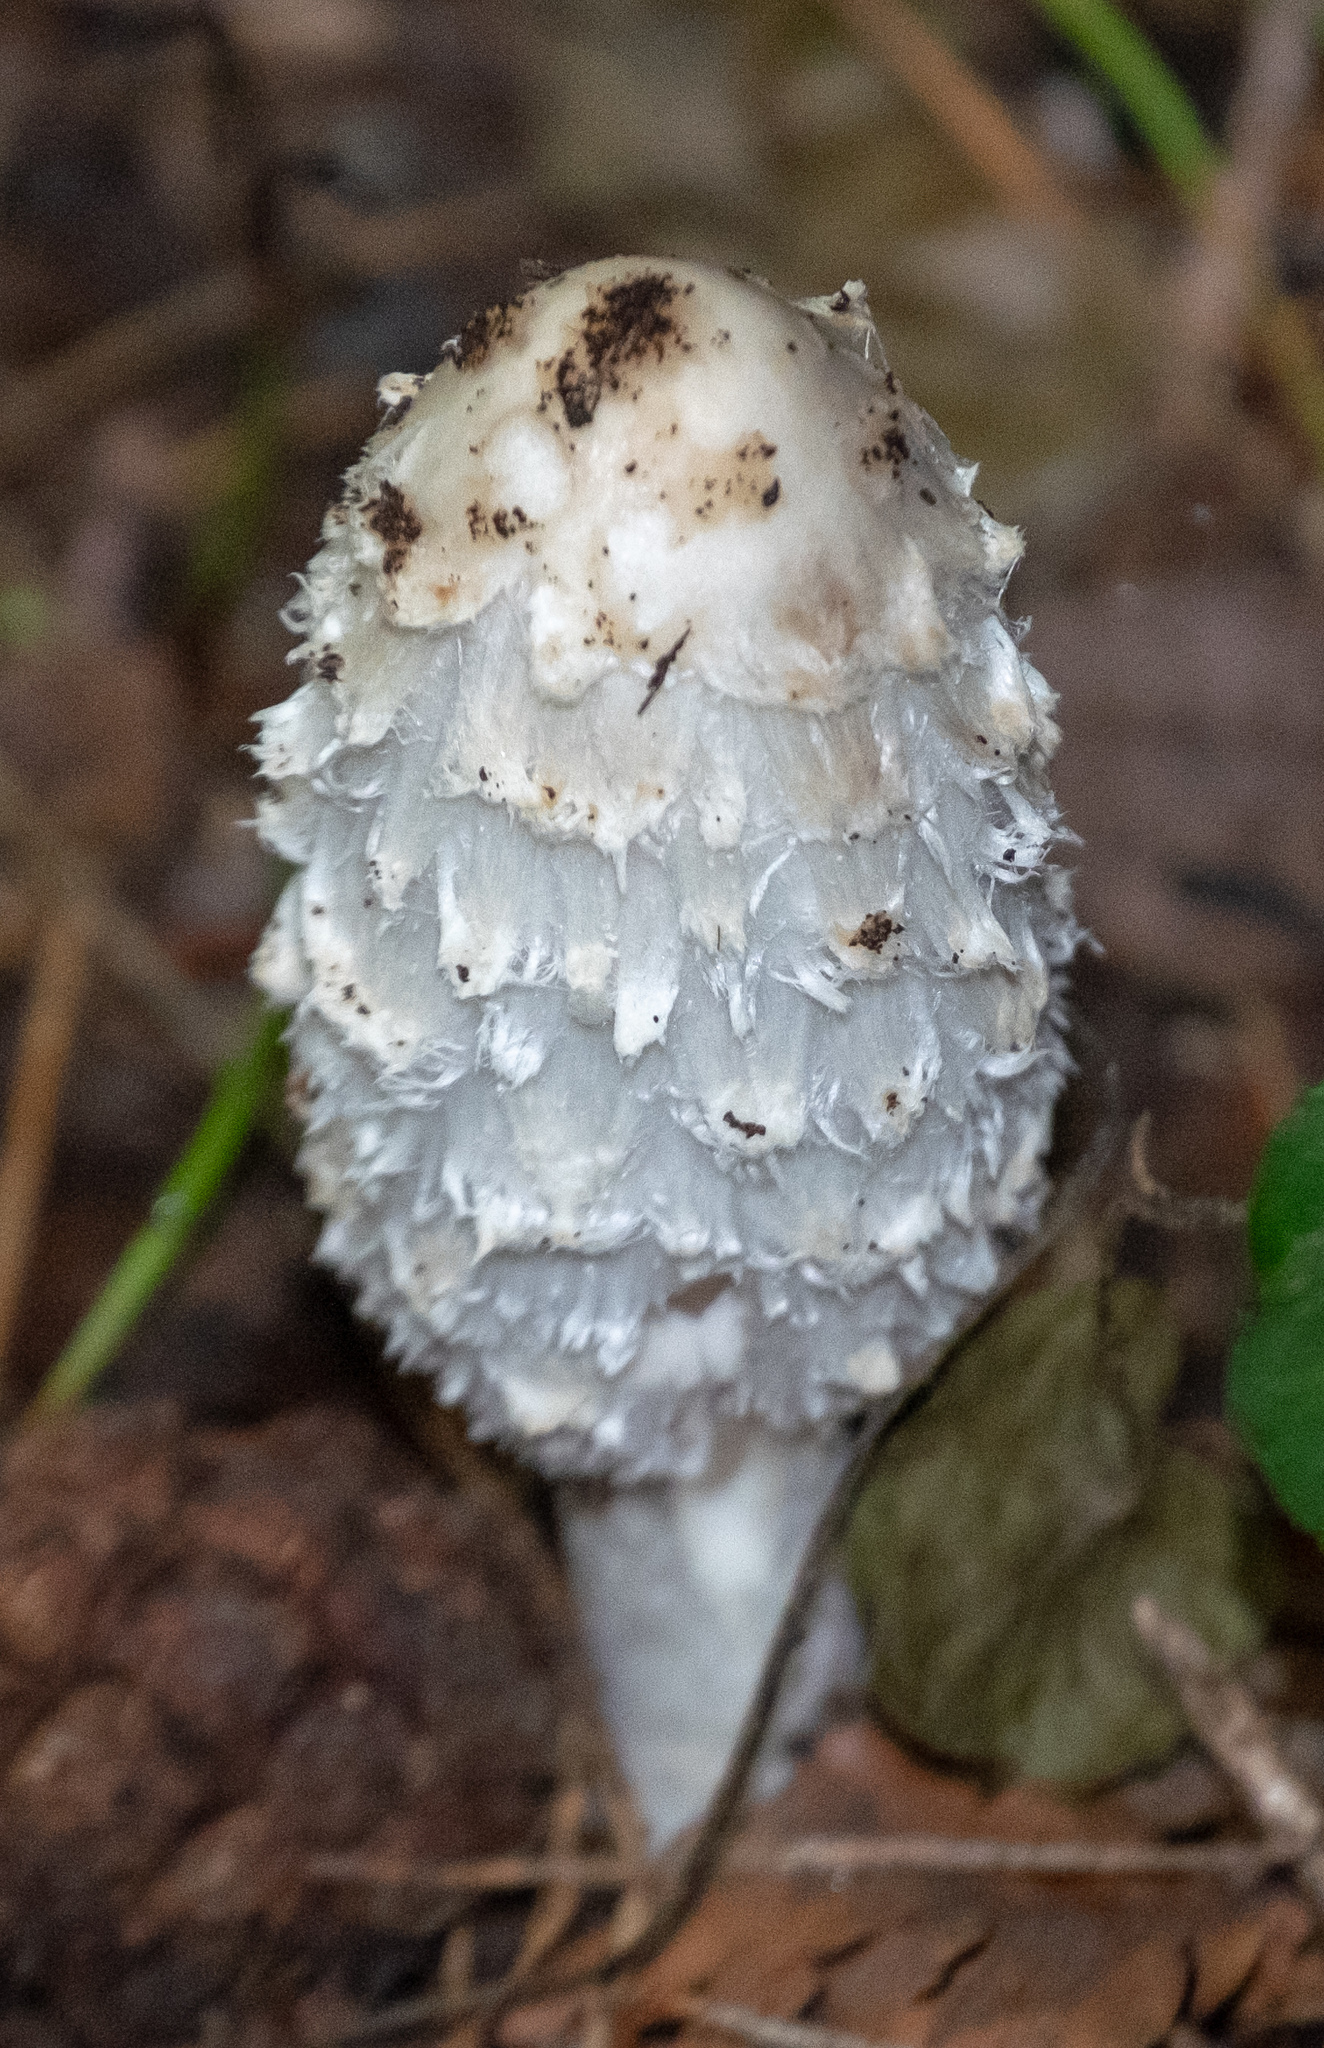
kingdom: Fungi
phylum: Basidiomycota
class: Agaricomycetes
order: Agaricales
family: Agaricaceae
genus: Coprinus
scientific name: Coprinus comatus
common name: Lawyer's wig
